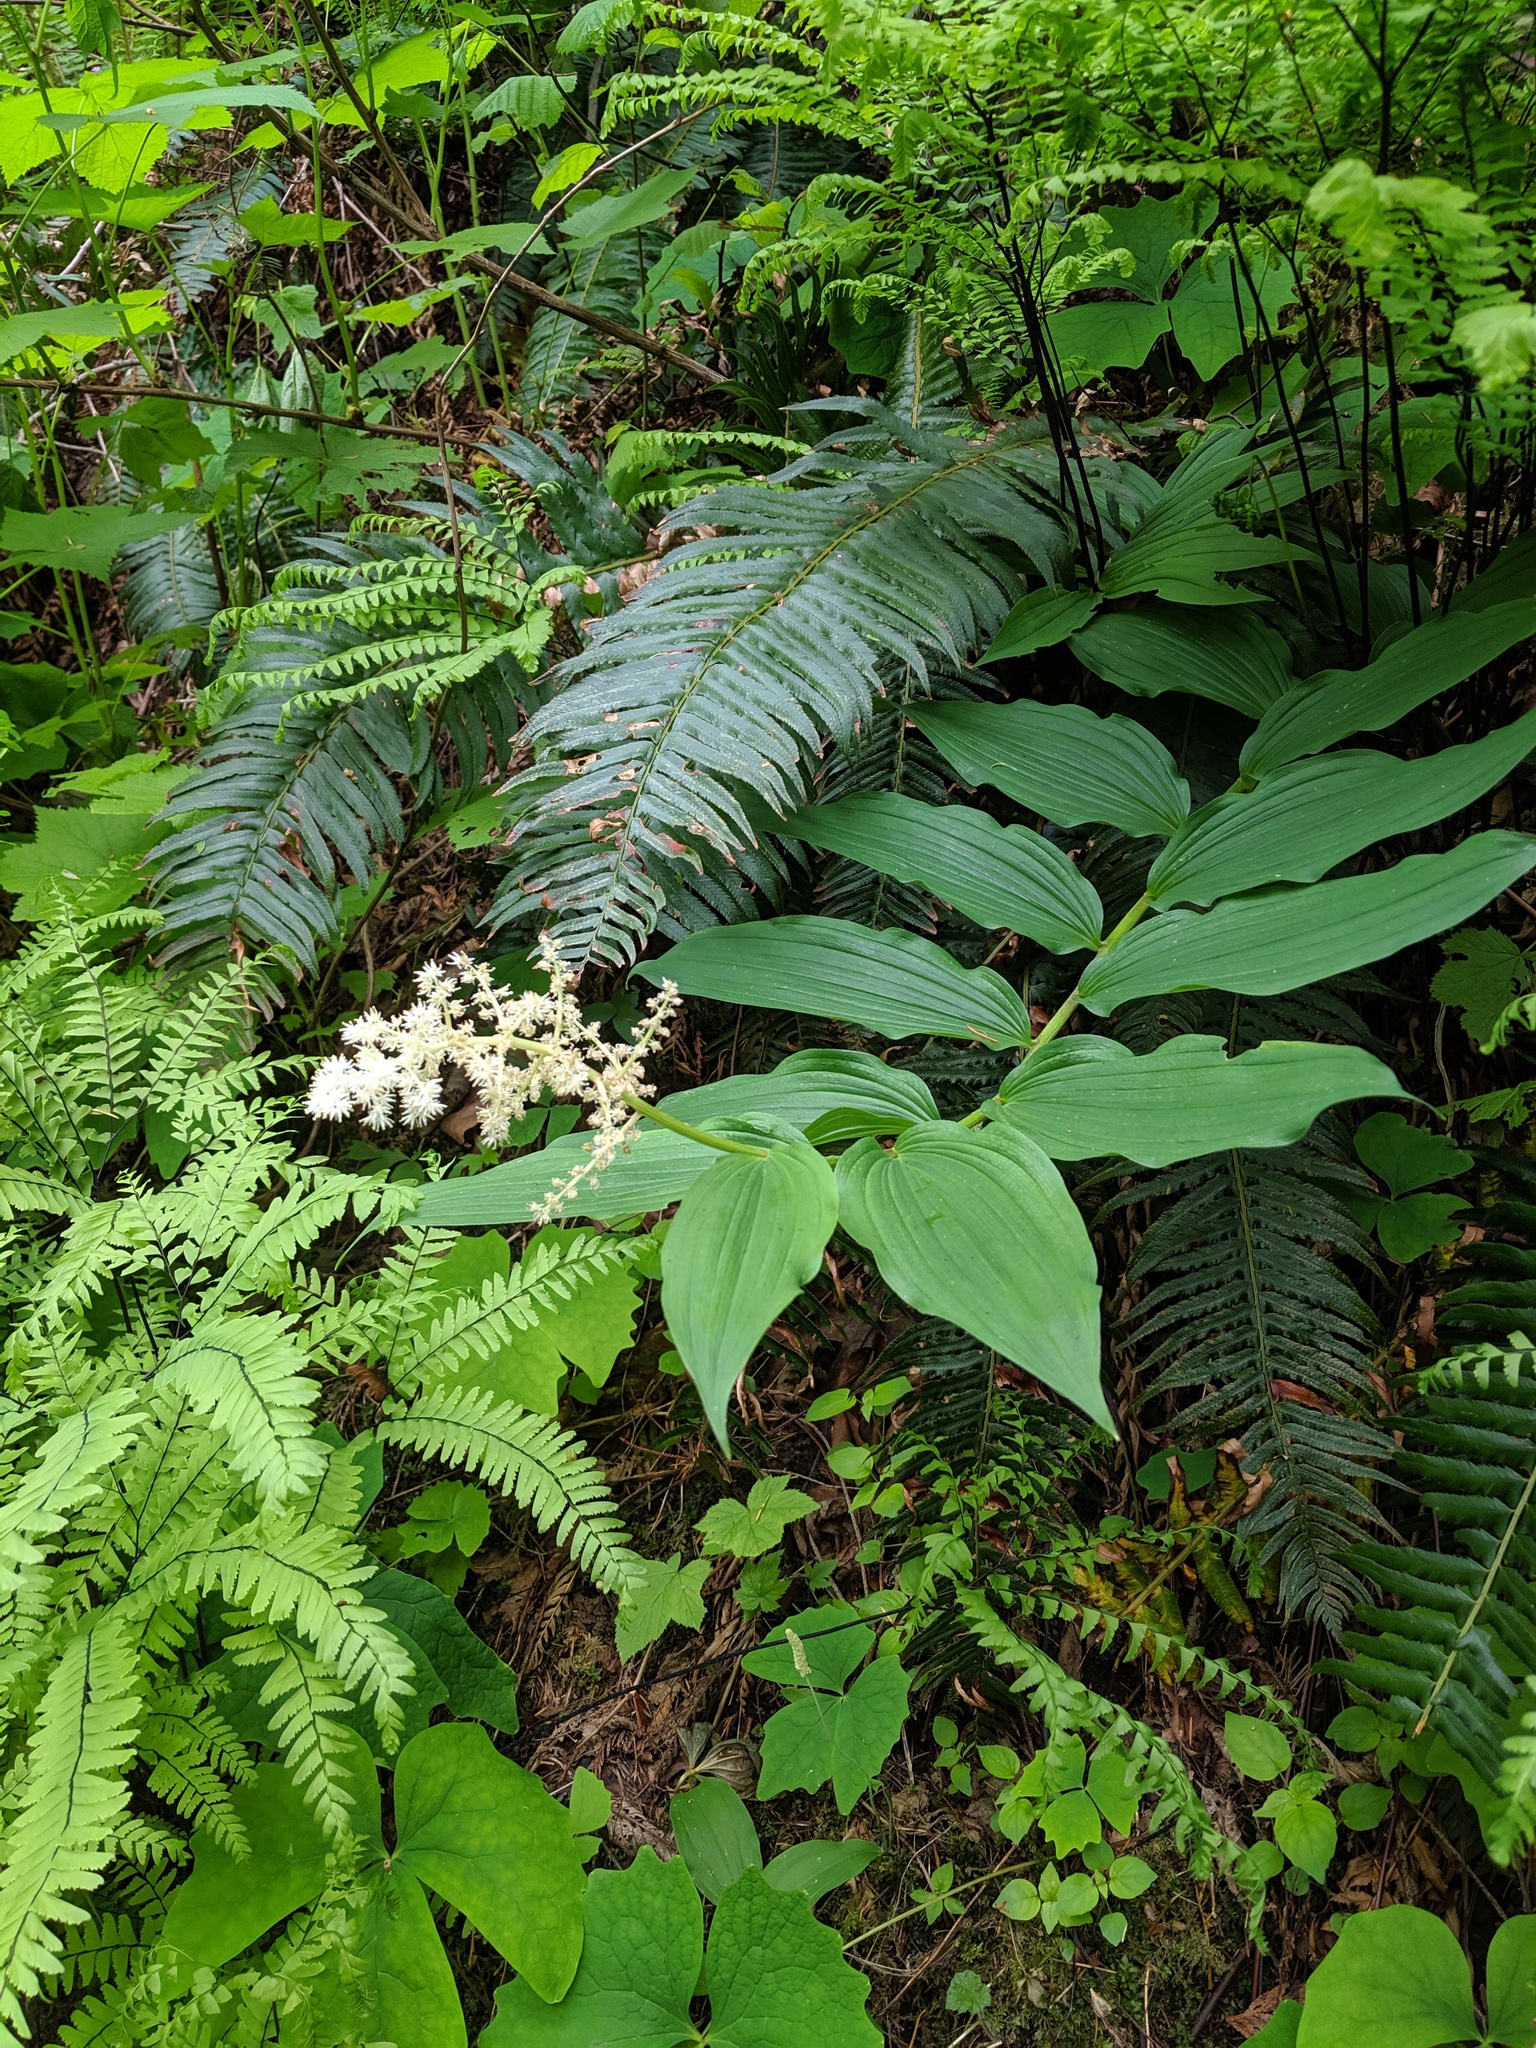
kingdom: Plantae
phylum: Tracheophyta
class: Liliopsida
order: Asparagales
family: Asparagaceae
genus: Maianthemum
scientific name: Maianthemum racemosum
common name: False spikenard
